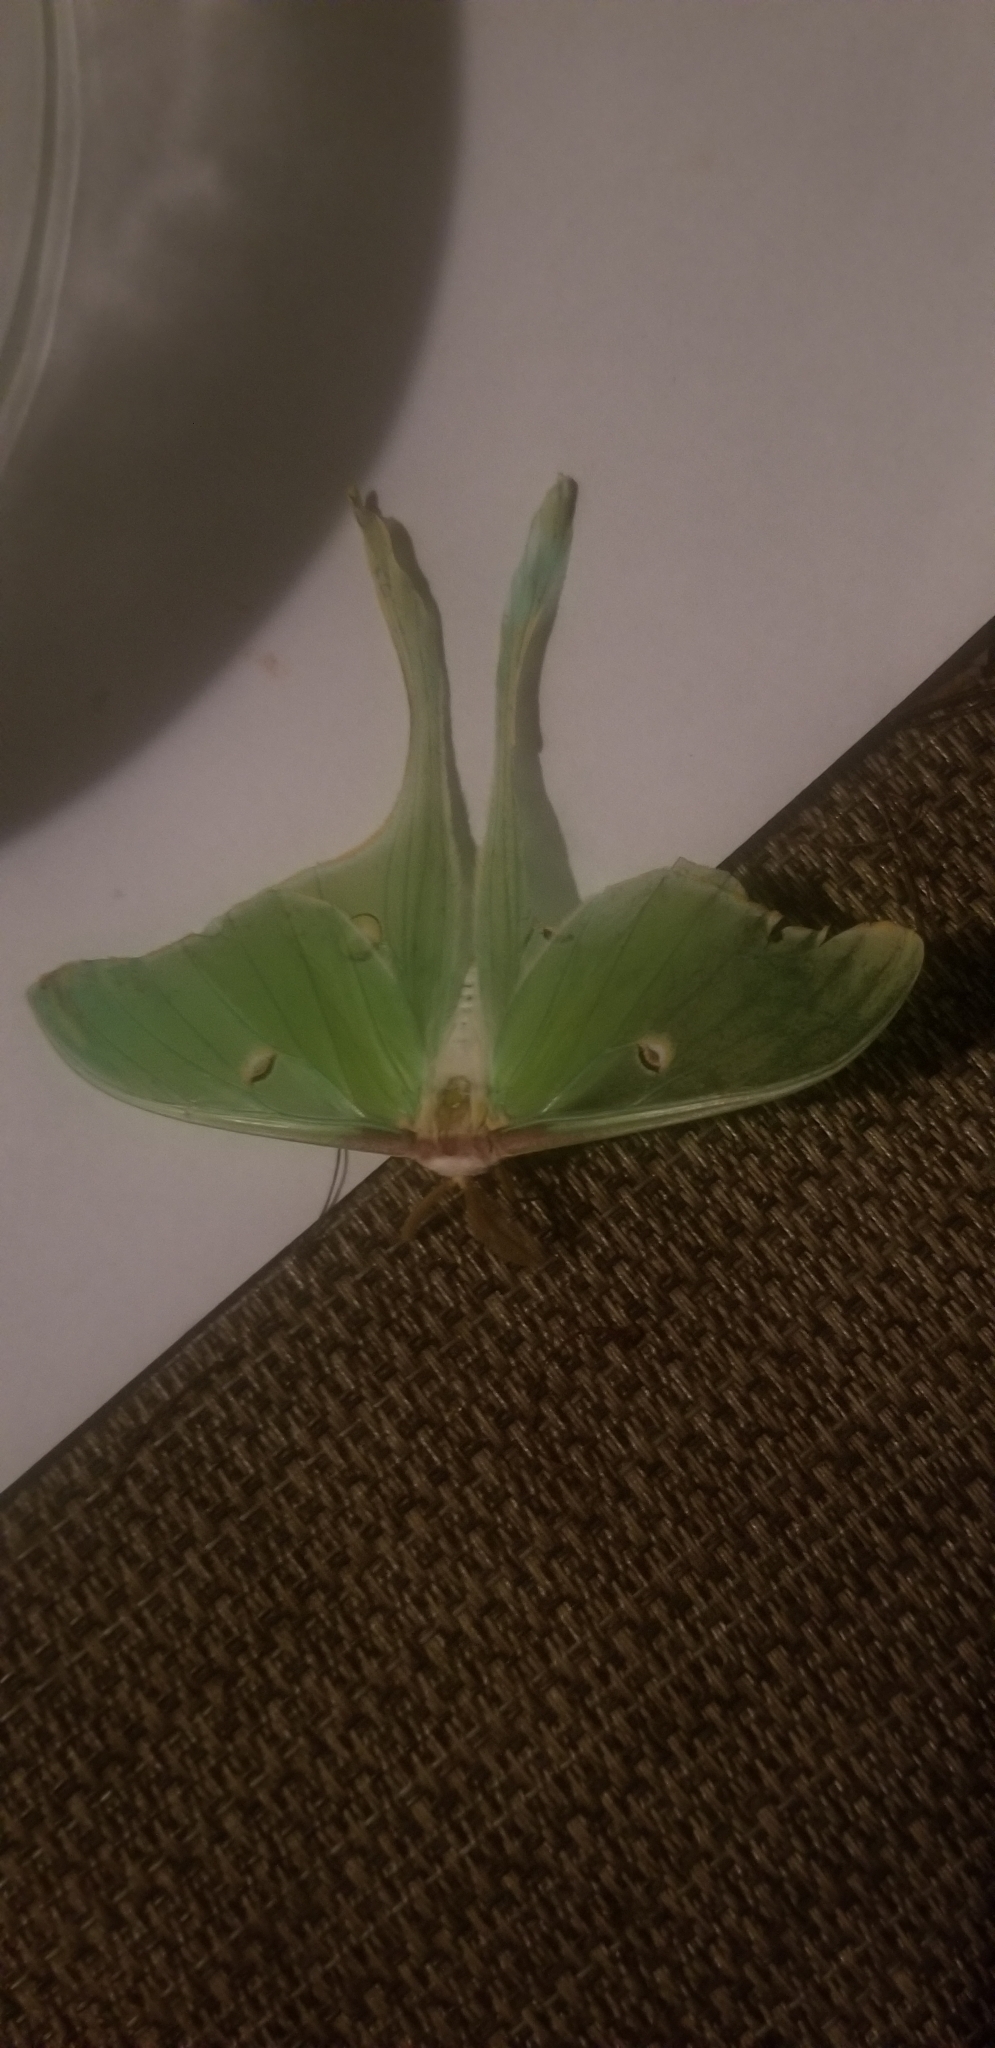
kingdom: Animalia
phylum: Arthropoda
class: Insecta
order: Lepidoptera
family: Saturniidae
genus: Actias
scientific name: Actias luna
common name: Luna moth
